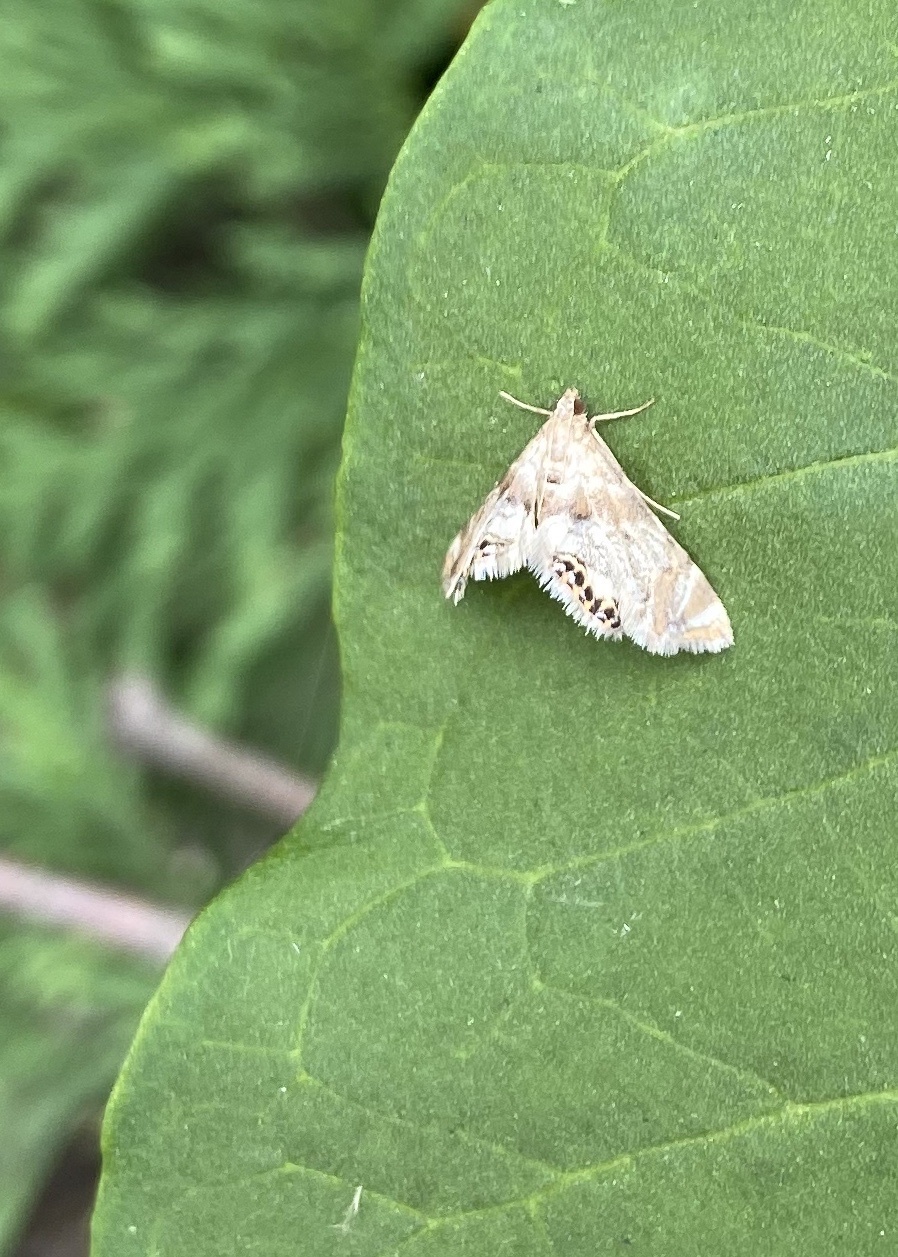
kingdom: Animalia
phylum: Arthropoda
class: Insecta
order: Lepidoptera
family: Crambidae
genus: Petrophila
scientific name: Petrophila fulicalis
